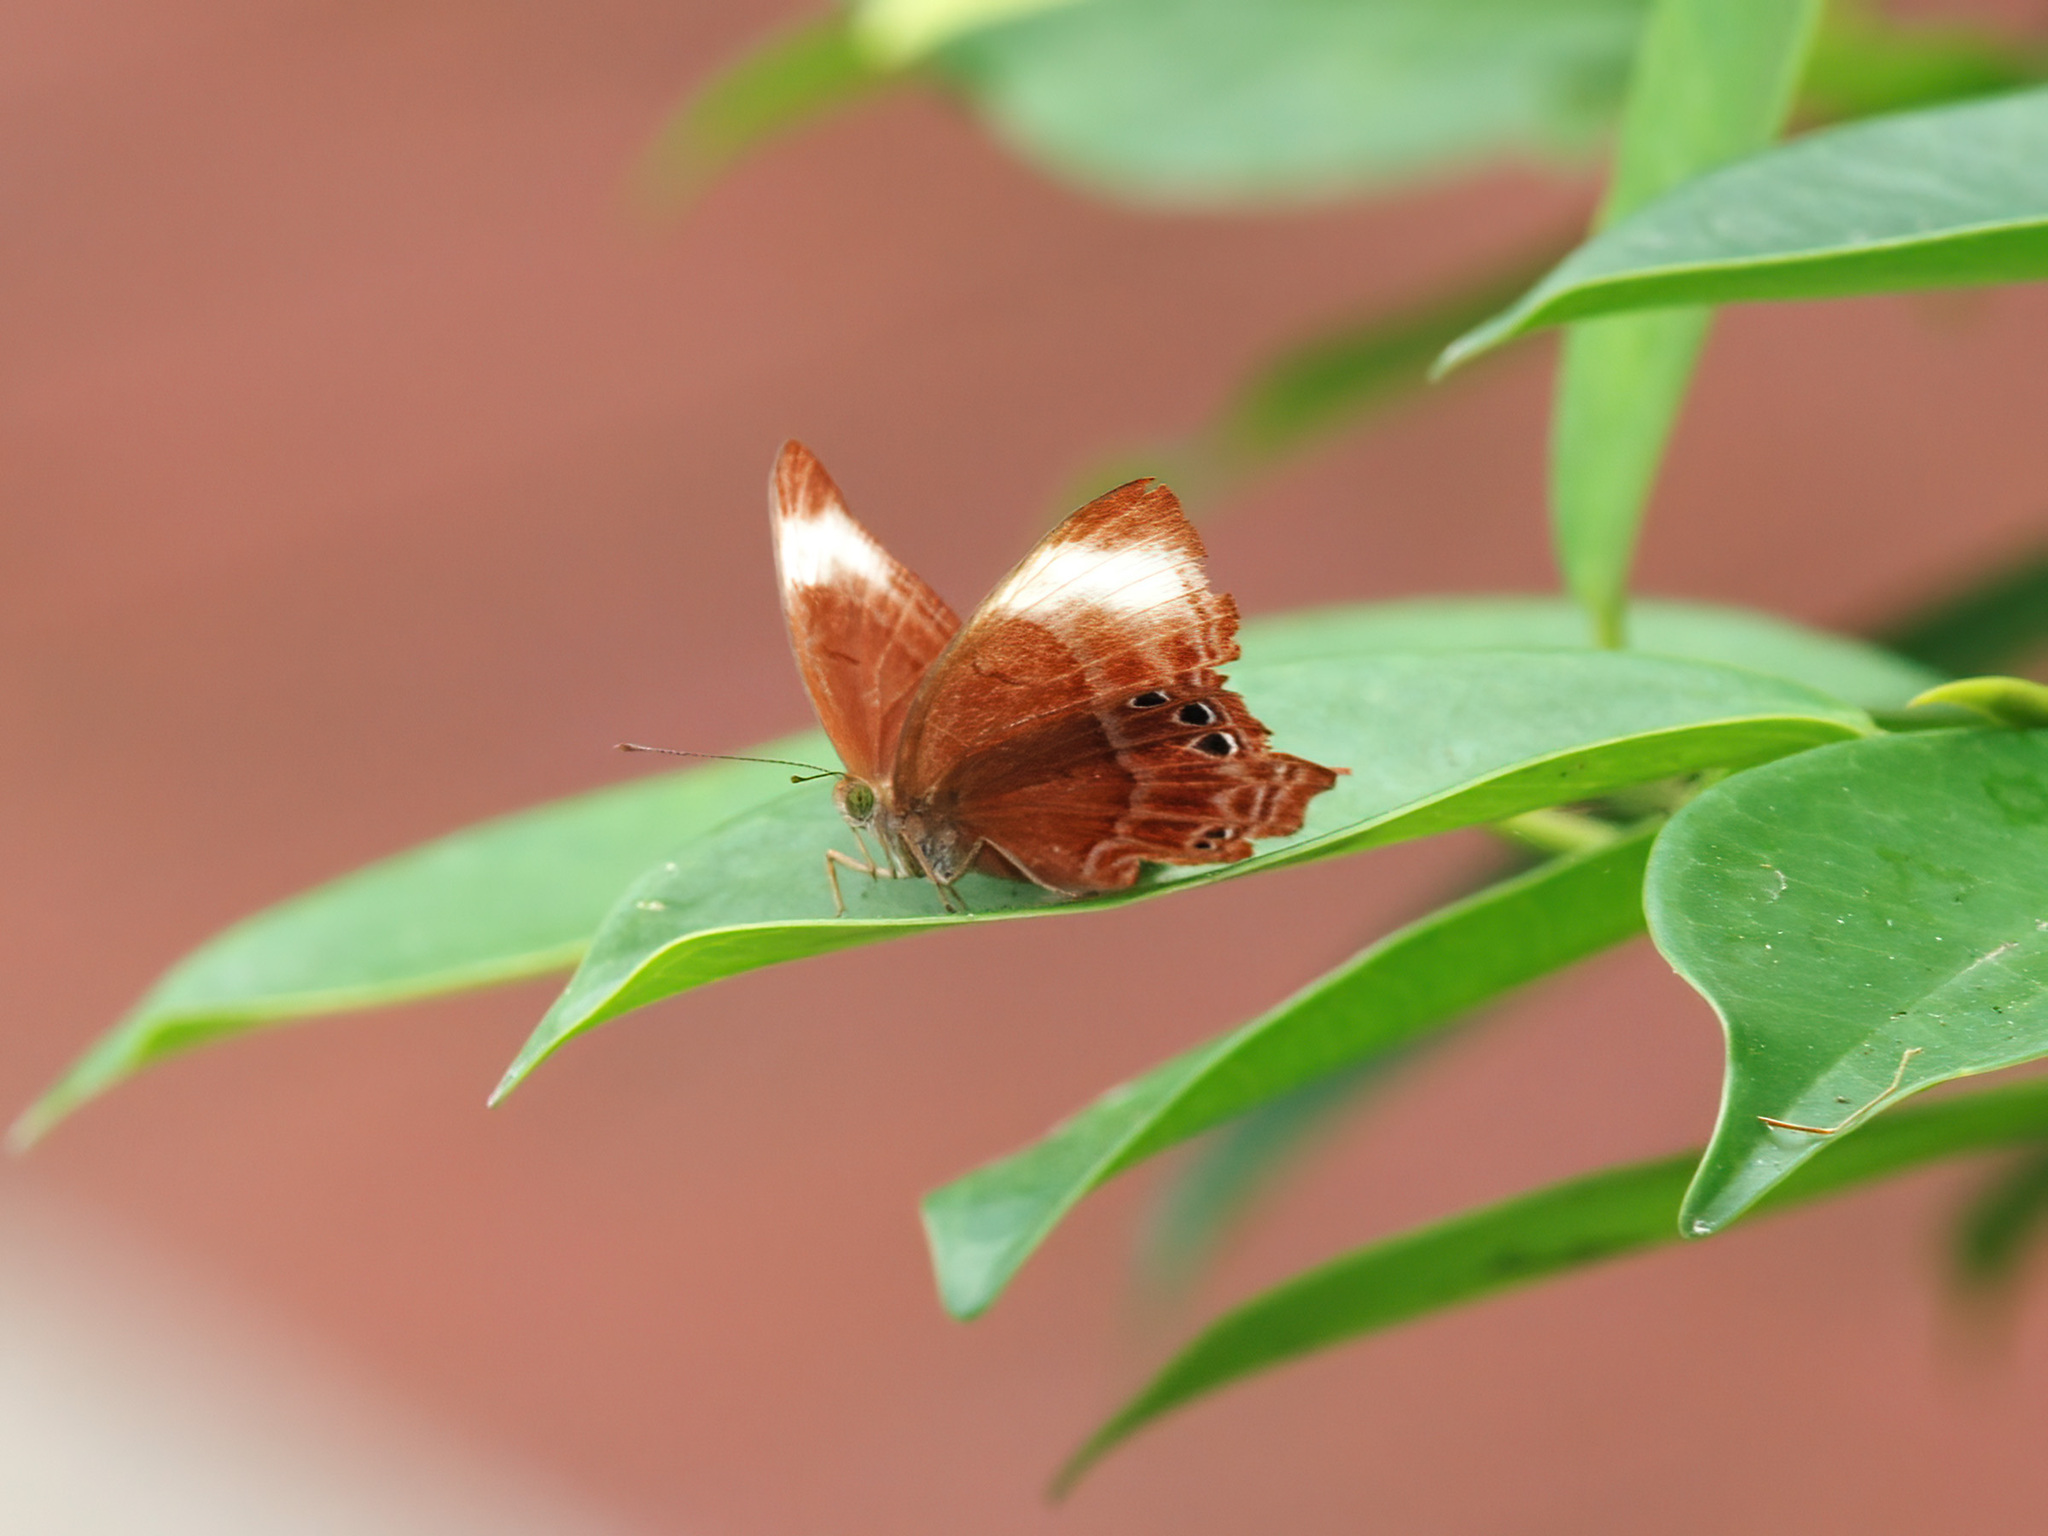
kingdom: Animalia
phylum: Arthropoda
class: Insecta
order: Lepidoptera
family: Lycaenidae
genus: Abisara
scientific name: Abisara saturata
